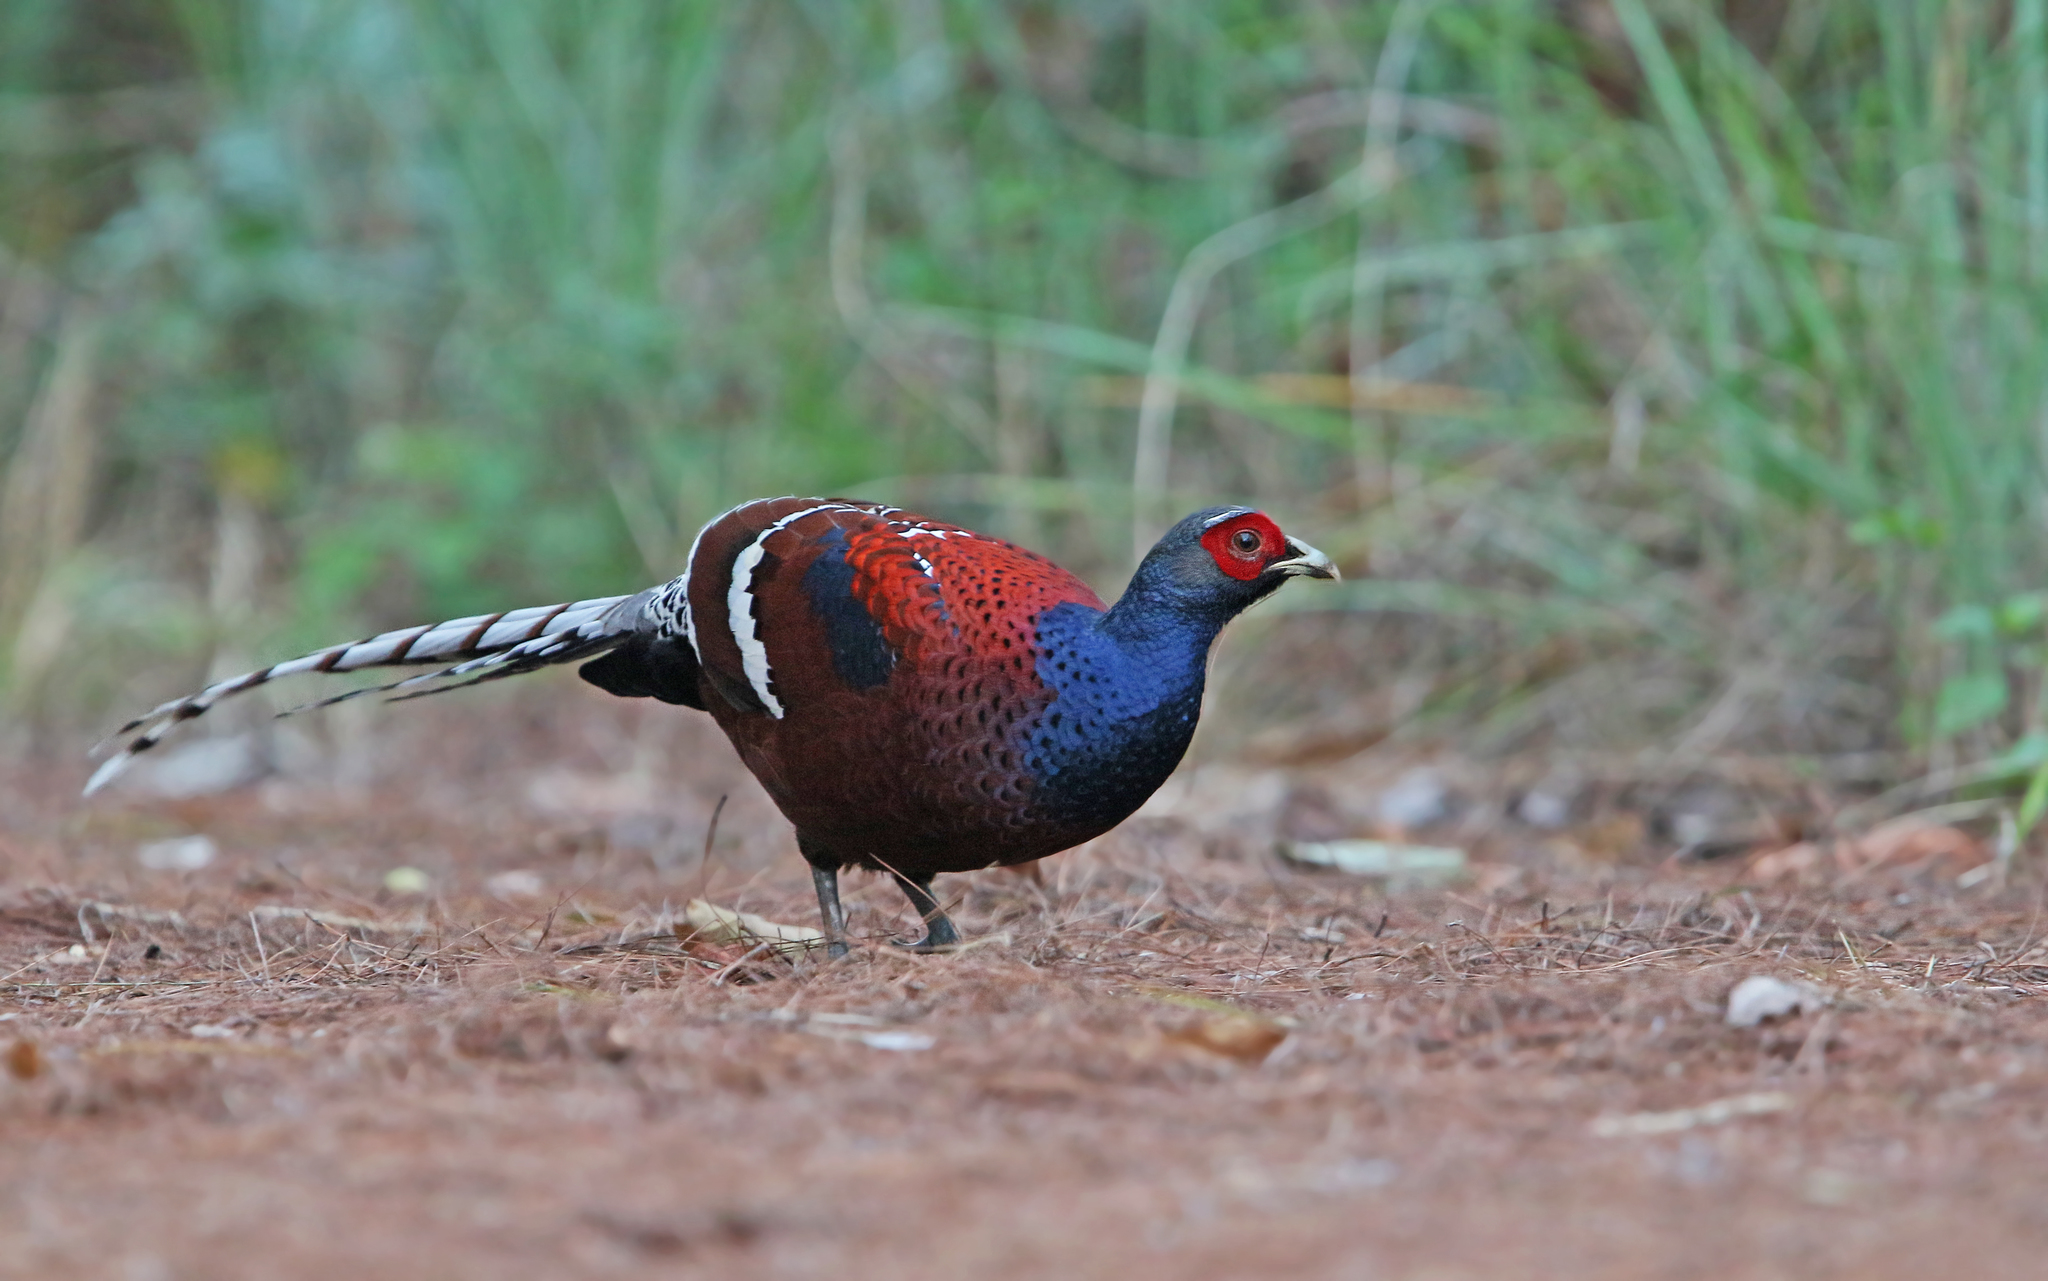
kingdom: Animalia
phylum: Chordata
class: Aves
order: Galliformes
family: Phasianidae
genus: Syrmaticus
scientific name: Syrmaticus humiae
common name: Mrs. hume's pheasant
